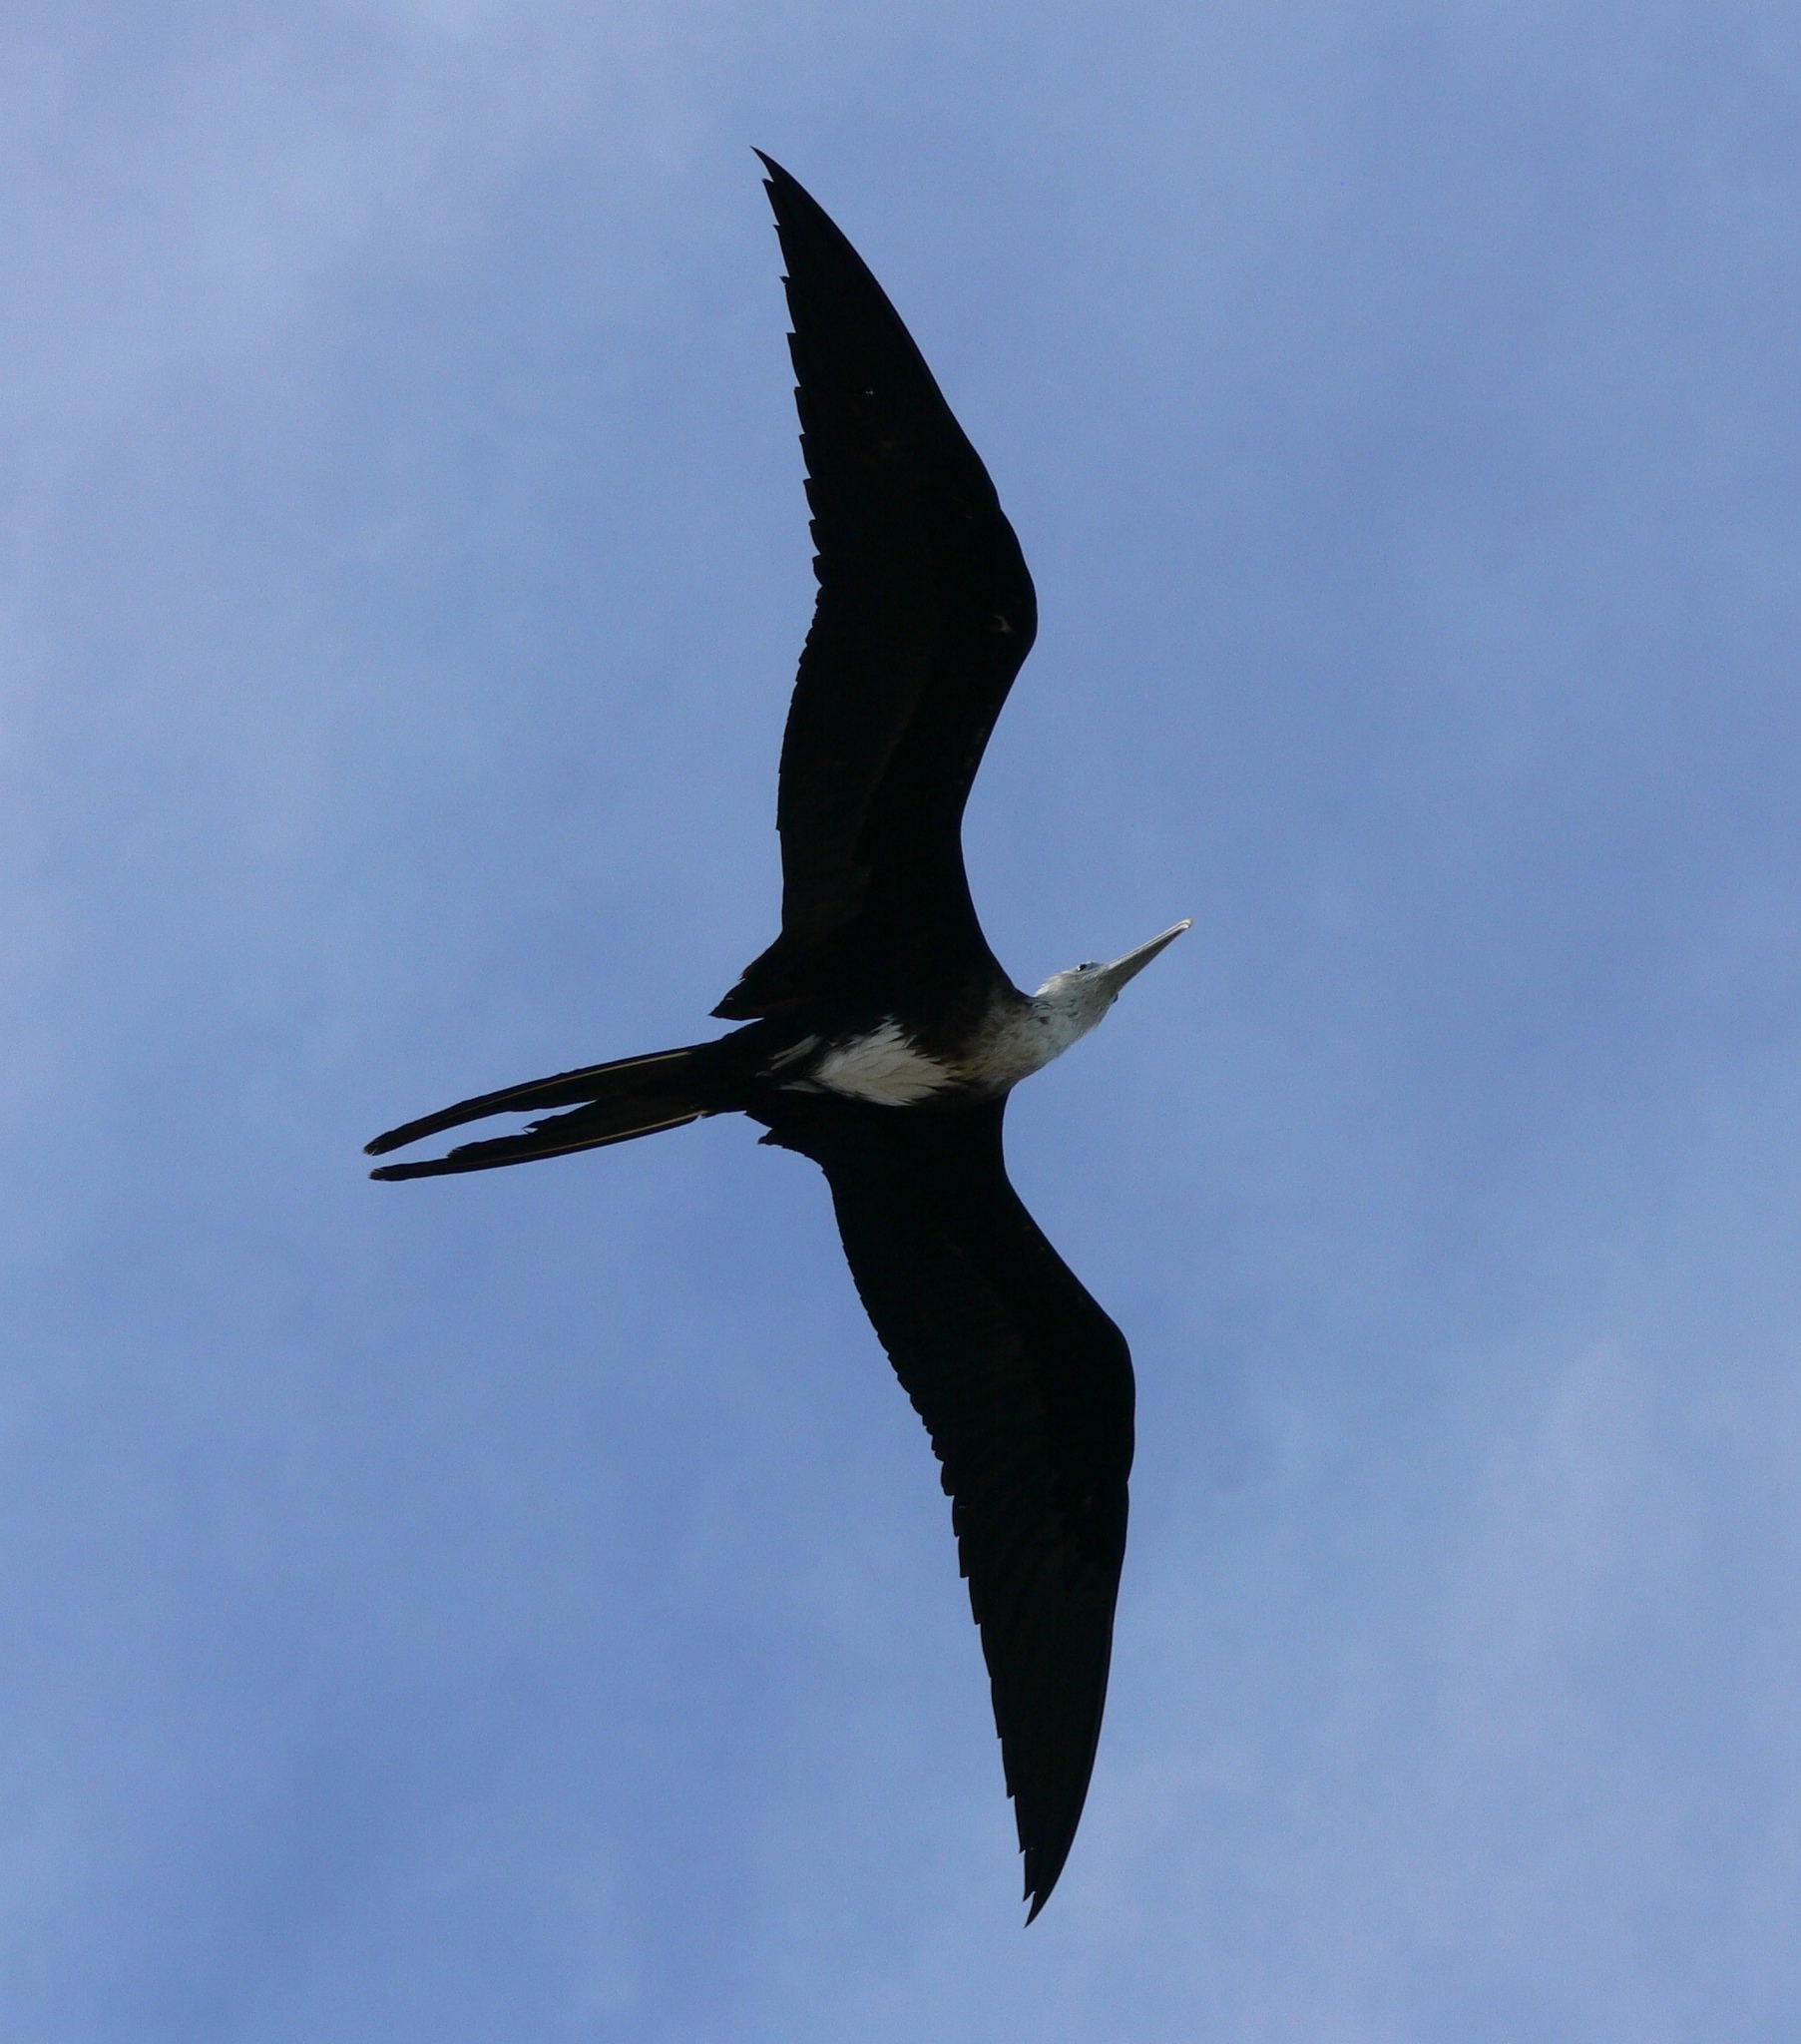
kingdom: Animalia
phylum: Chordata
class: Aves
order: Suliformes
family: Fregatidae
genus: Fregata
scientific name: Fregata magnificens
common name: Magnificent frigatebird
